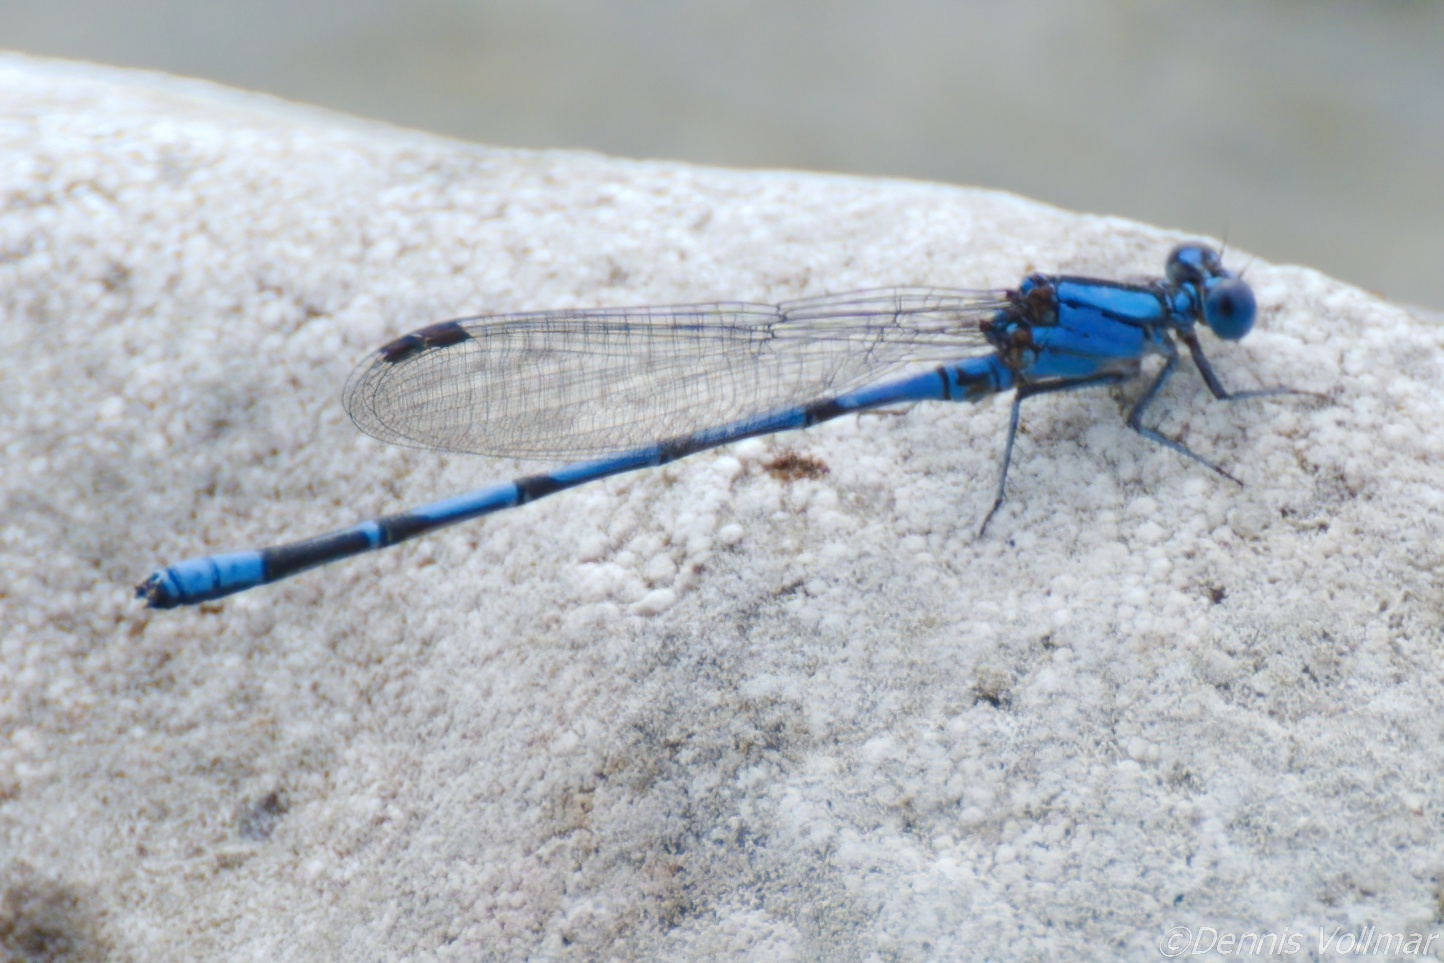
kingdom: Animalia
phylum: Arthropoda
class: Insecta
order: Odonata
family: Coenagrionidae
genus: Argia
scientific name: Argia barretti
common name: Comanche dancer
